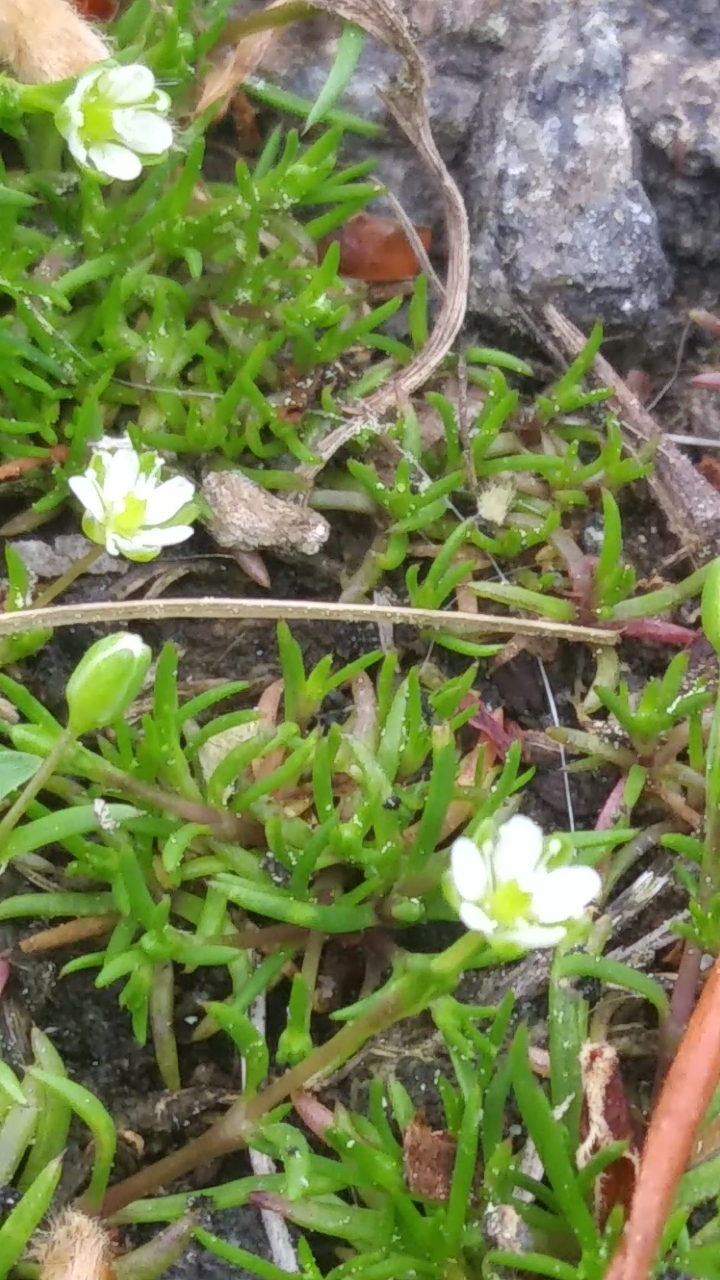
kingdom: Plantae
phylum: Tracheophyta
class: Magnoliopsida
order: Caryophyllales
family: Caryophyllaceae
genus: Sagina
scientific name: Sagina decumbens
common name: Decumbent pearlwort
